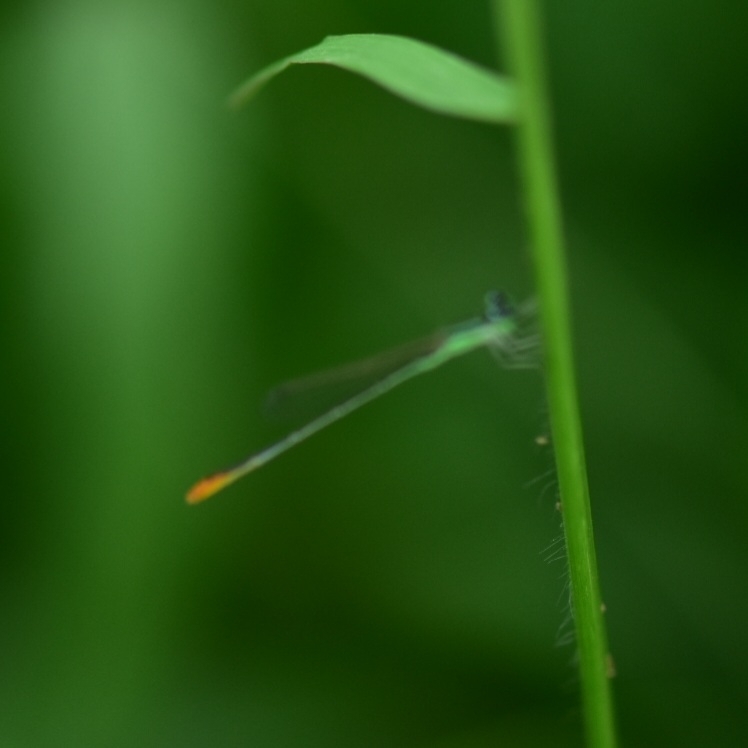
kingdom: Animalia
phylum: Arthropoda
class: Insecta
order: Odonata
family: Coenagrionidae
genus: Agriocnemis
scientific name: Agriocnemis pygmaea
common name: Pygmy wisp
